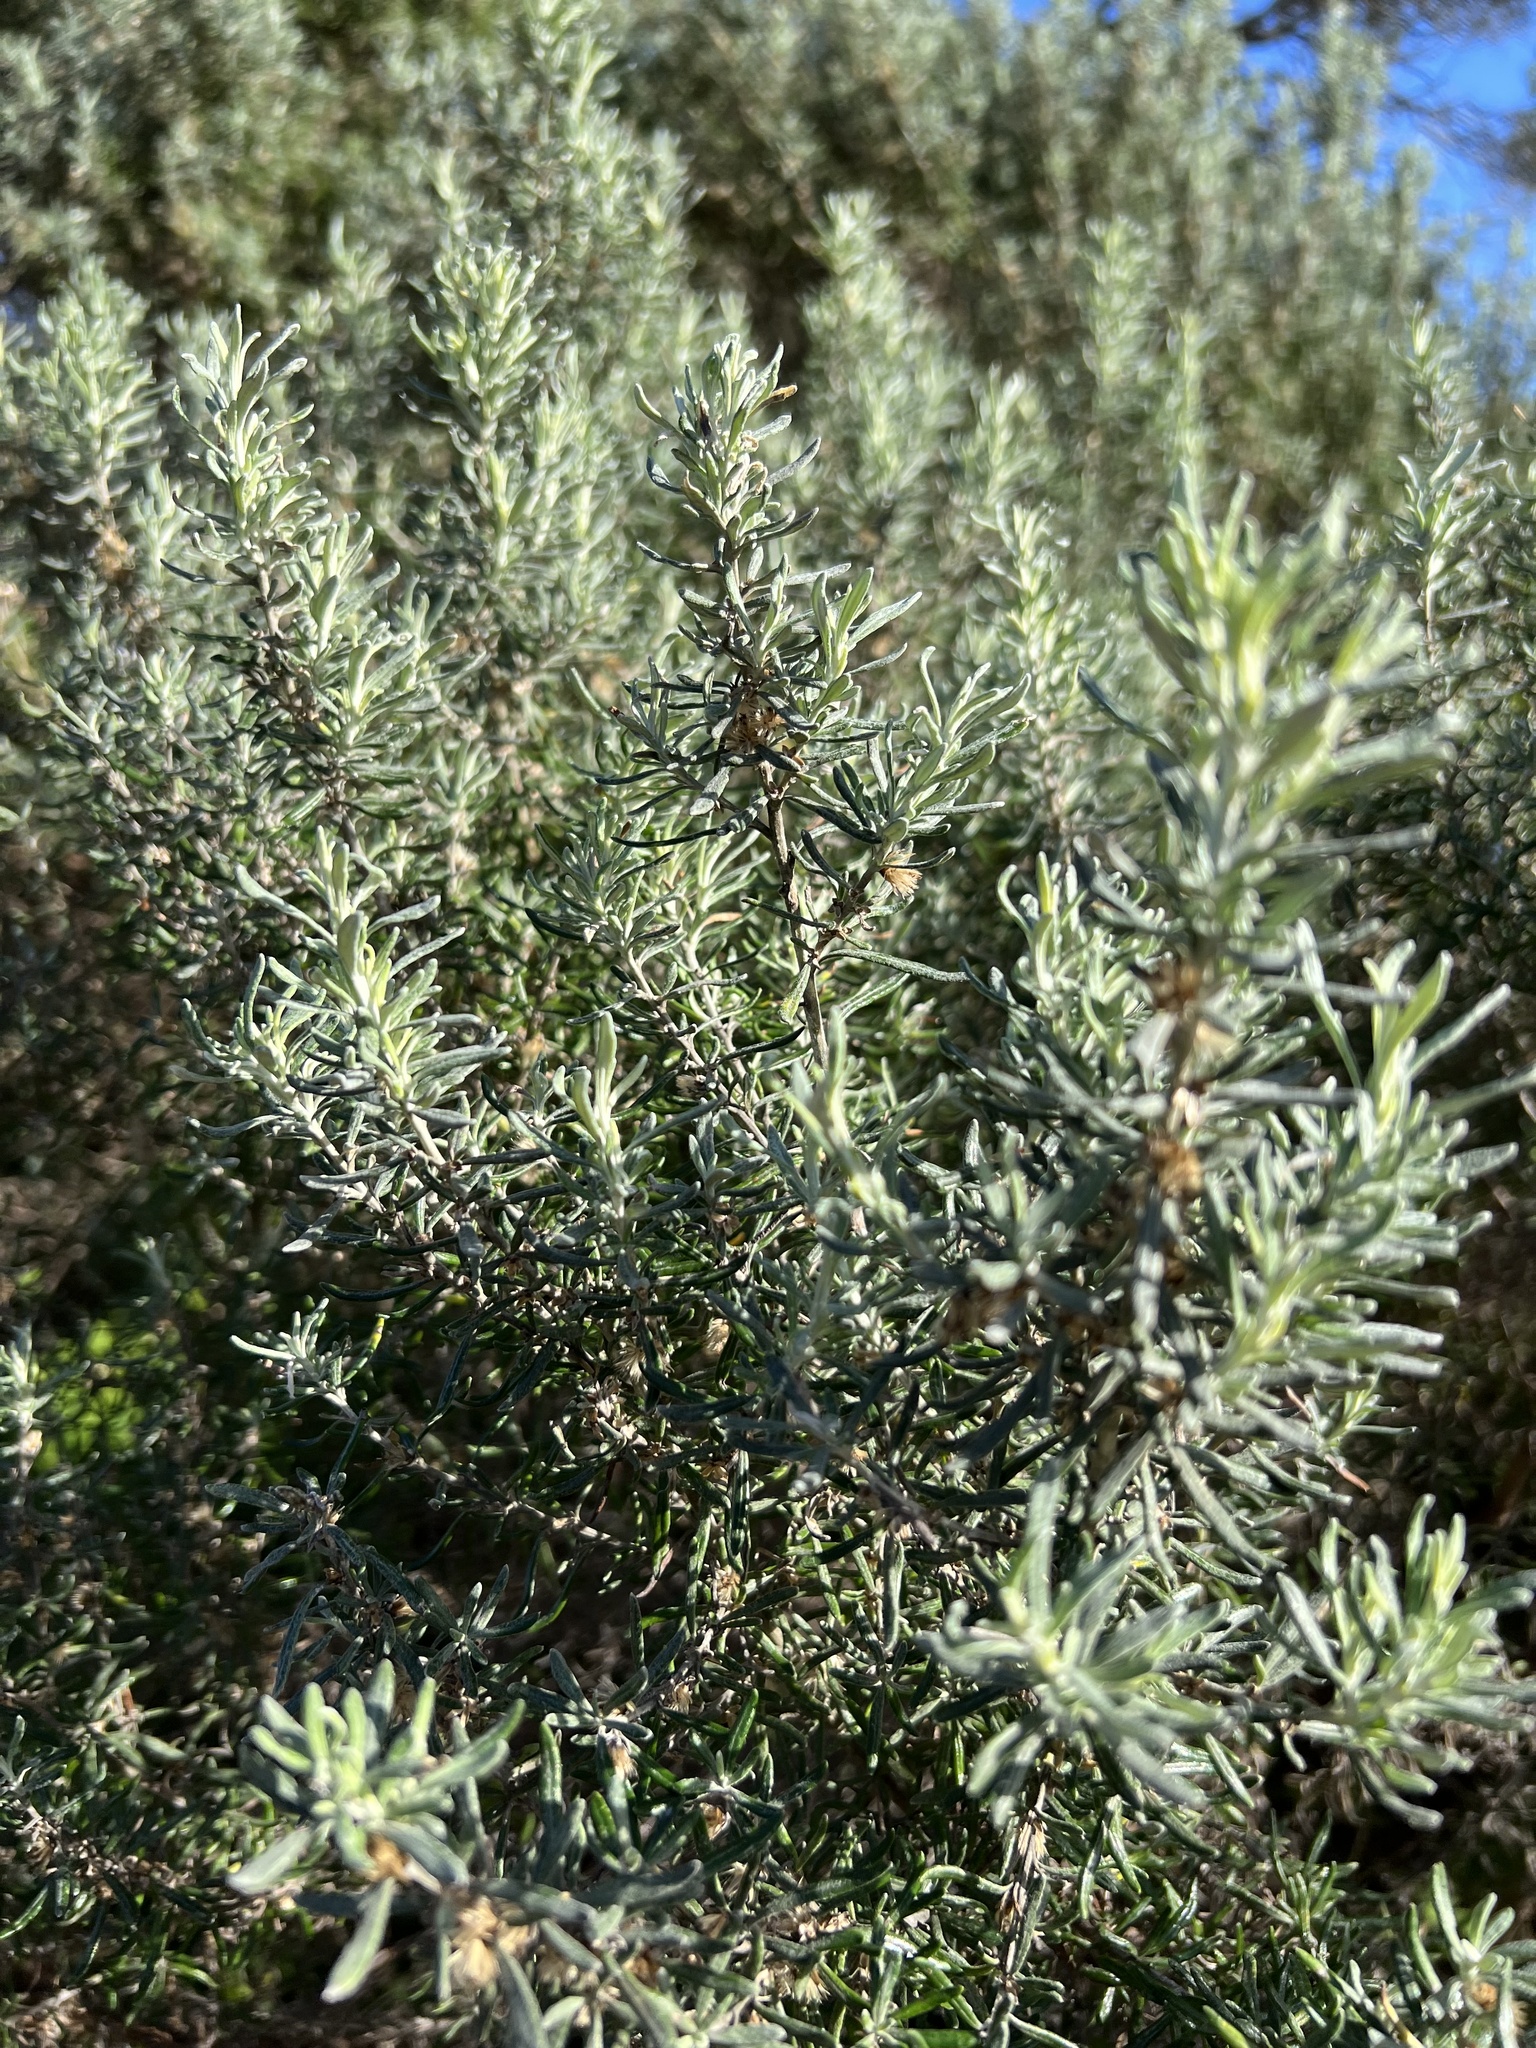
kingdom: Plantae
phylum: Tracheophyta
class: Magnoliopsida
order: Asterales
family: Asteraceae
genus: Olearia
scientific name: Olearia axillaris
